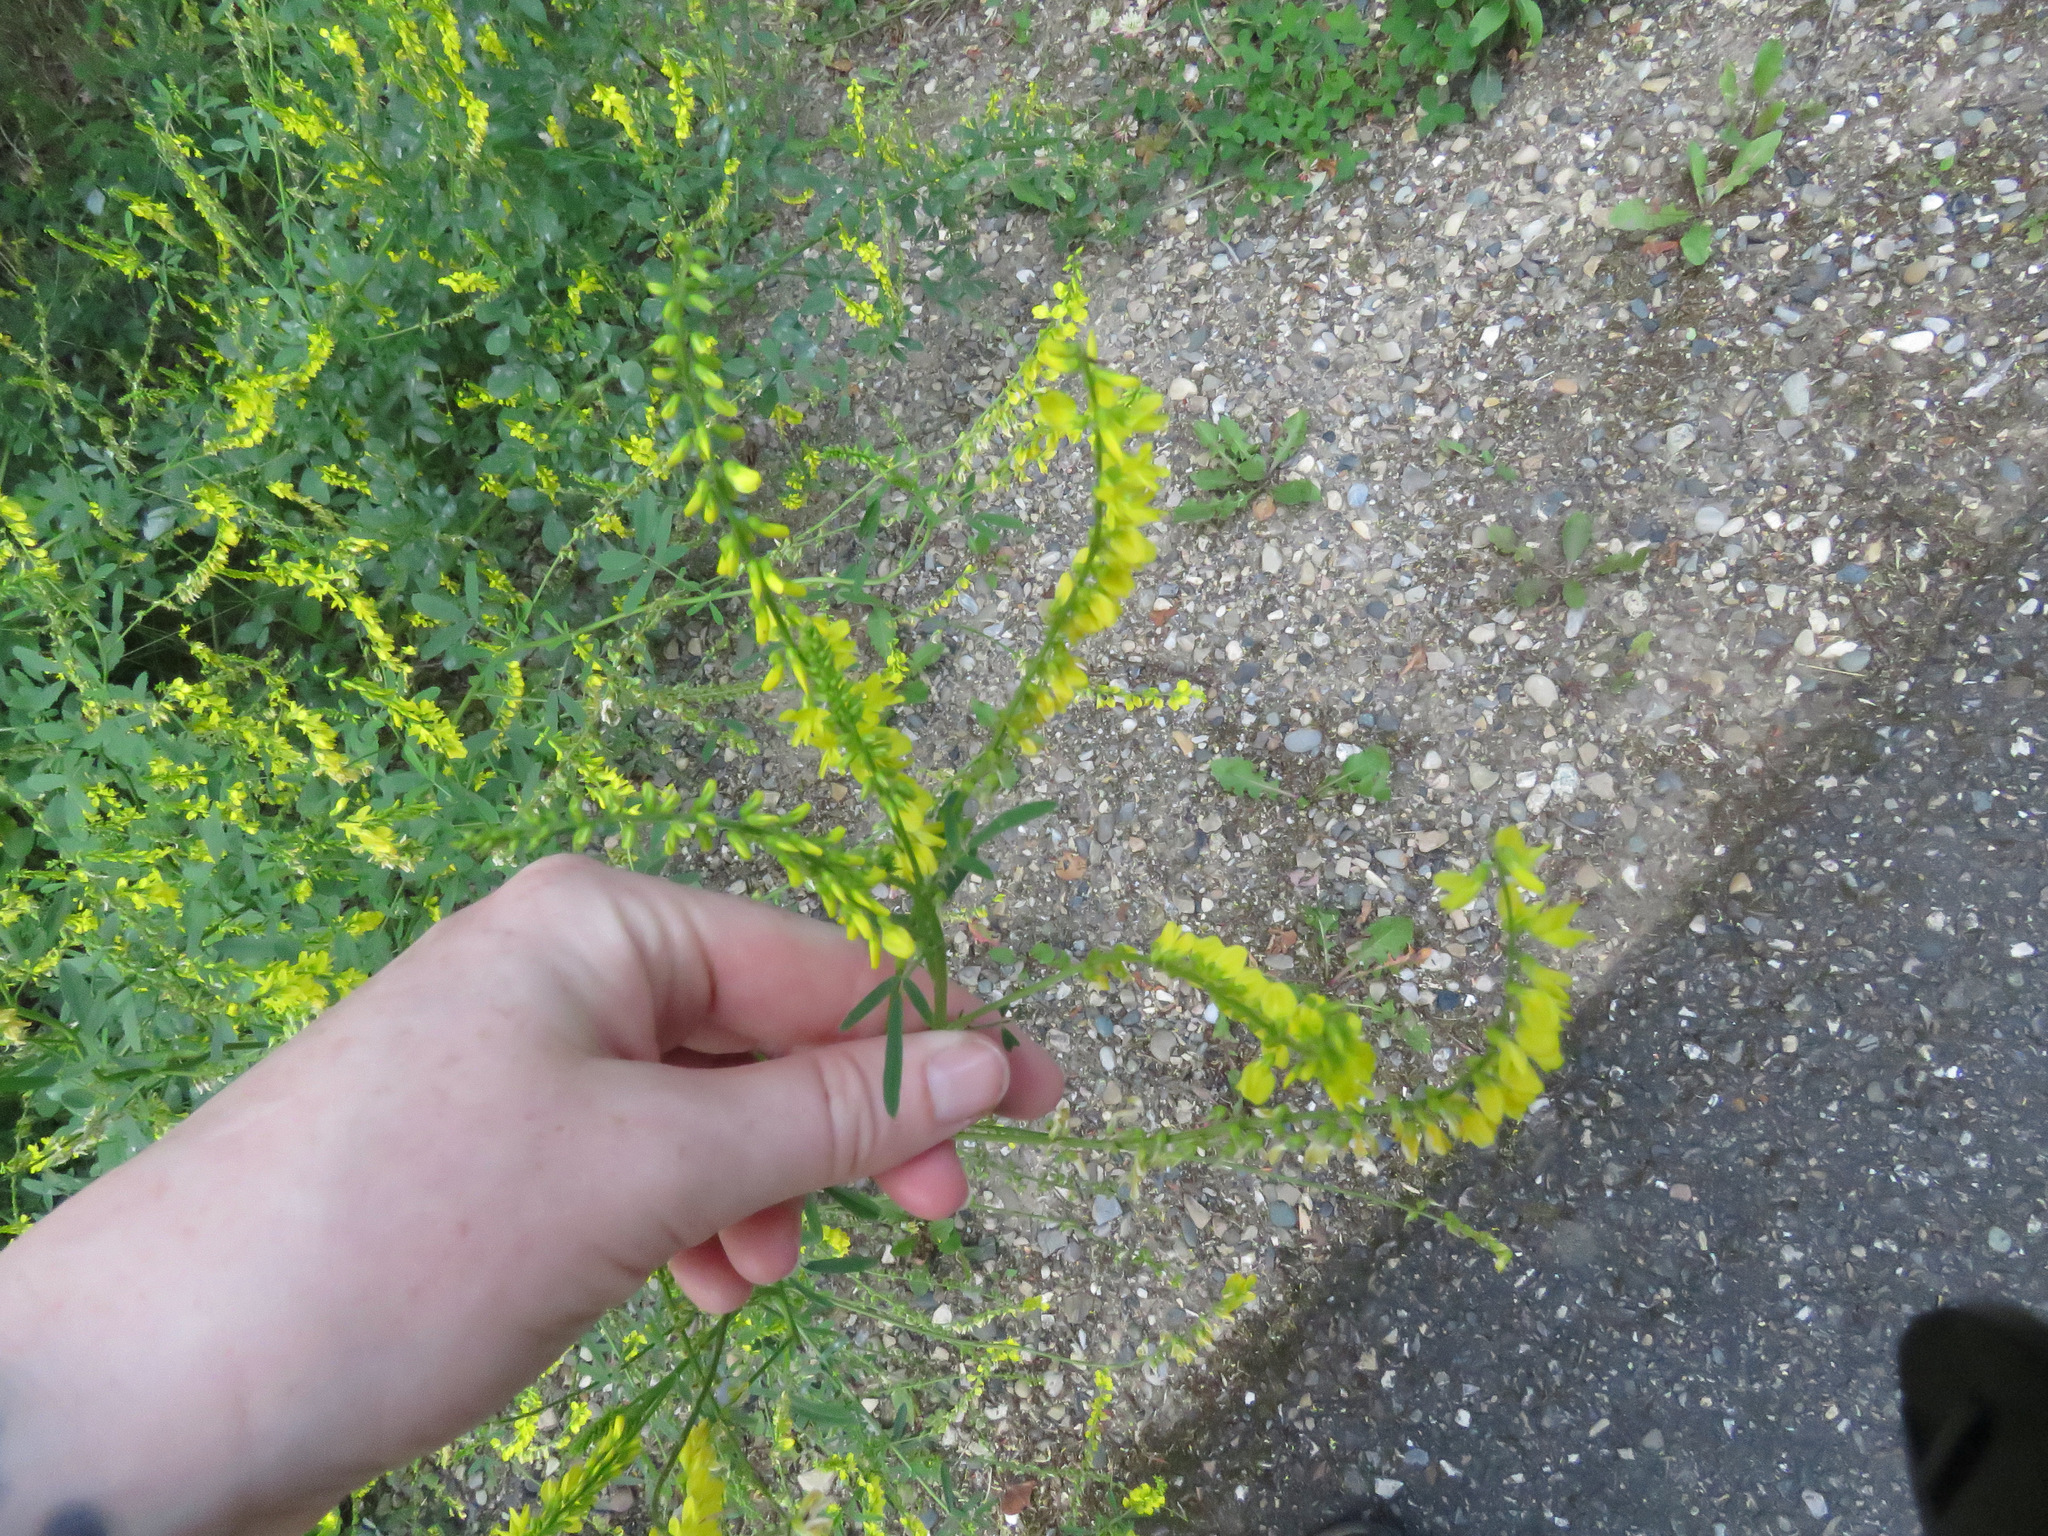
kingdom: Plantae
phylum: Tracheophyta
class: Magnoliopsida
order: Fabales
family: Fabaceae
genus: Melilotus
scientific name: Melilotus officinalis
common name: Sweetclover
